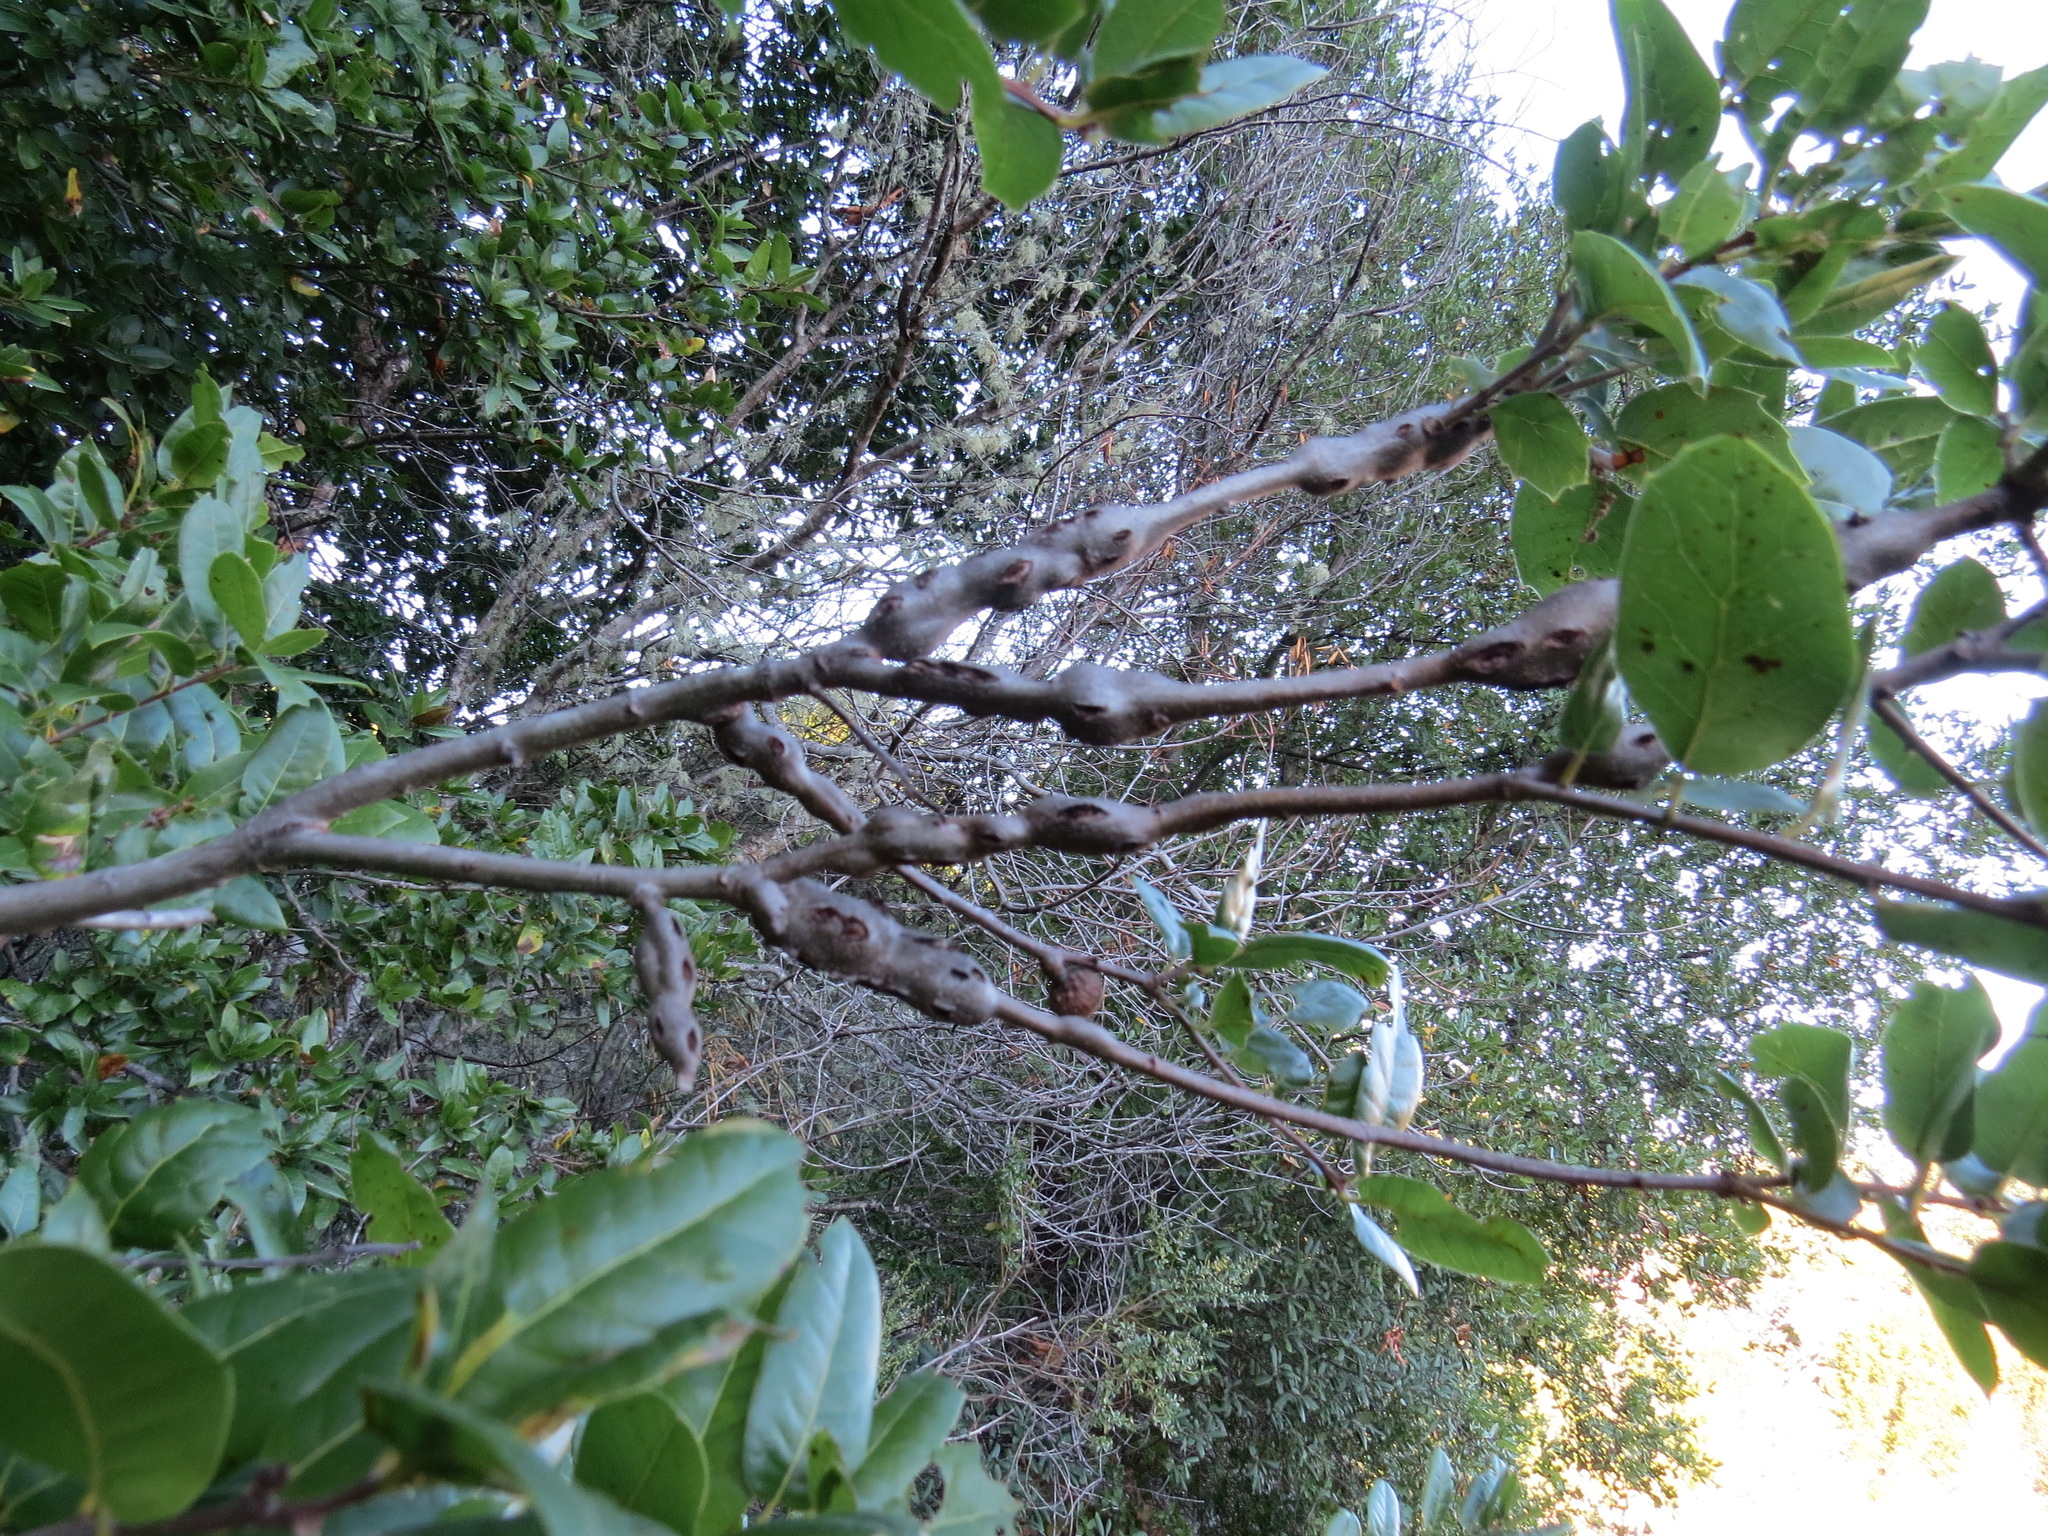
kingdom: Animalia
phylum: Arthropoda
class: Insecta
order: Hymenoptera
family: Cynipidae
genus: Callirhytis
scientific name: Callirhytis
